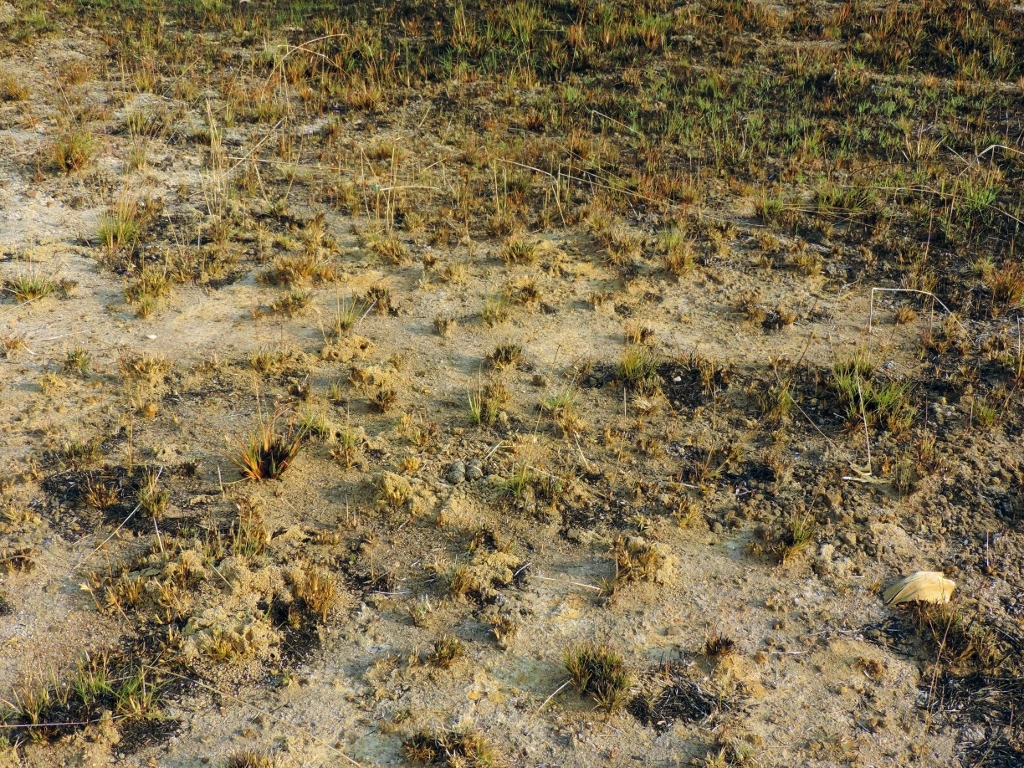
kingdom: Animalia
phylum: Chordata
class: Aves
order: Charadriiformes
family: Charadriidae
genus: Vanellus
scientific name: Vanellus senegallus
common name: African wattled lapwing
